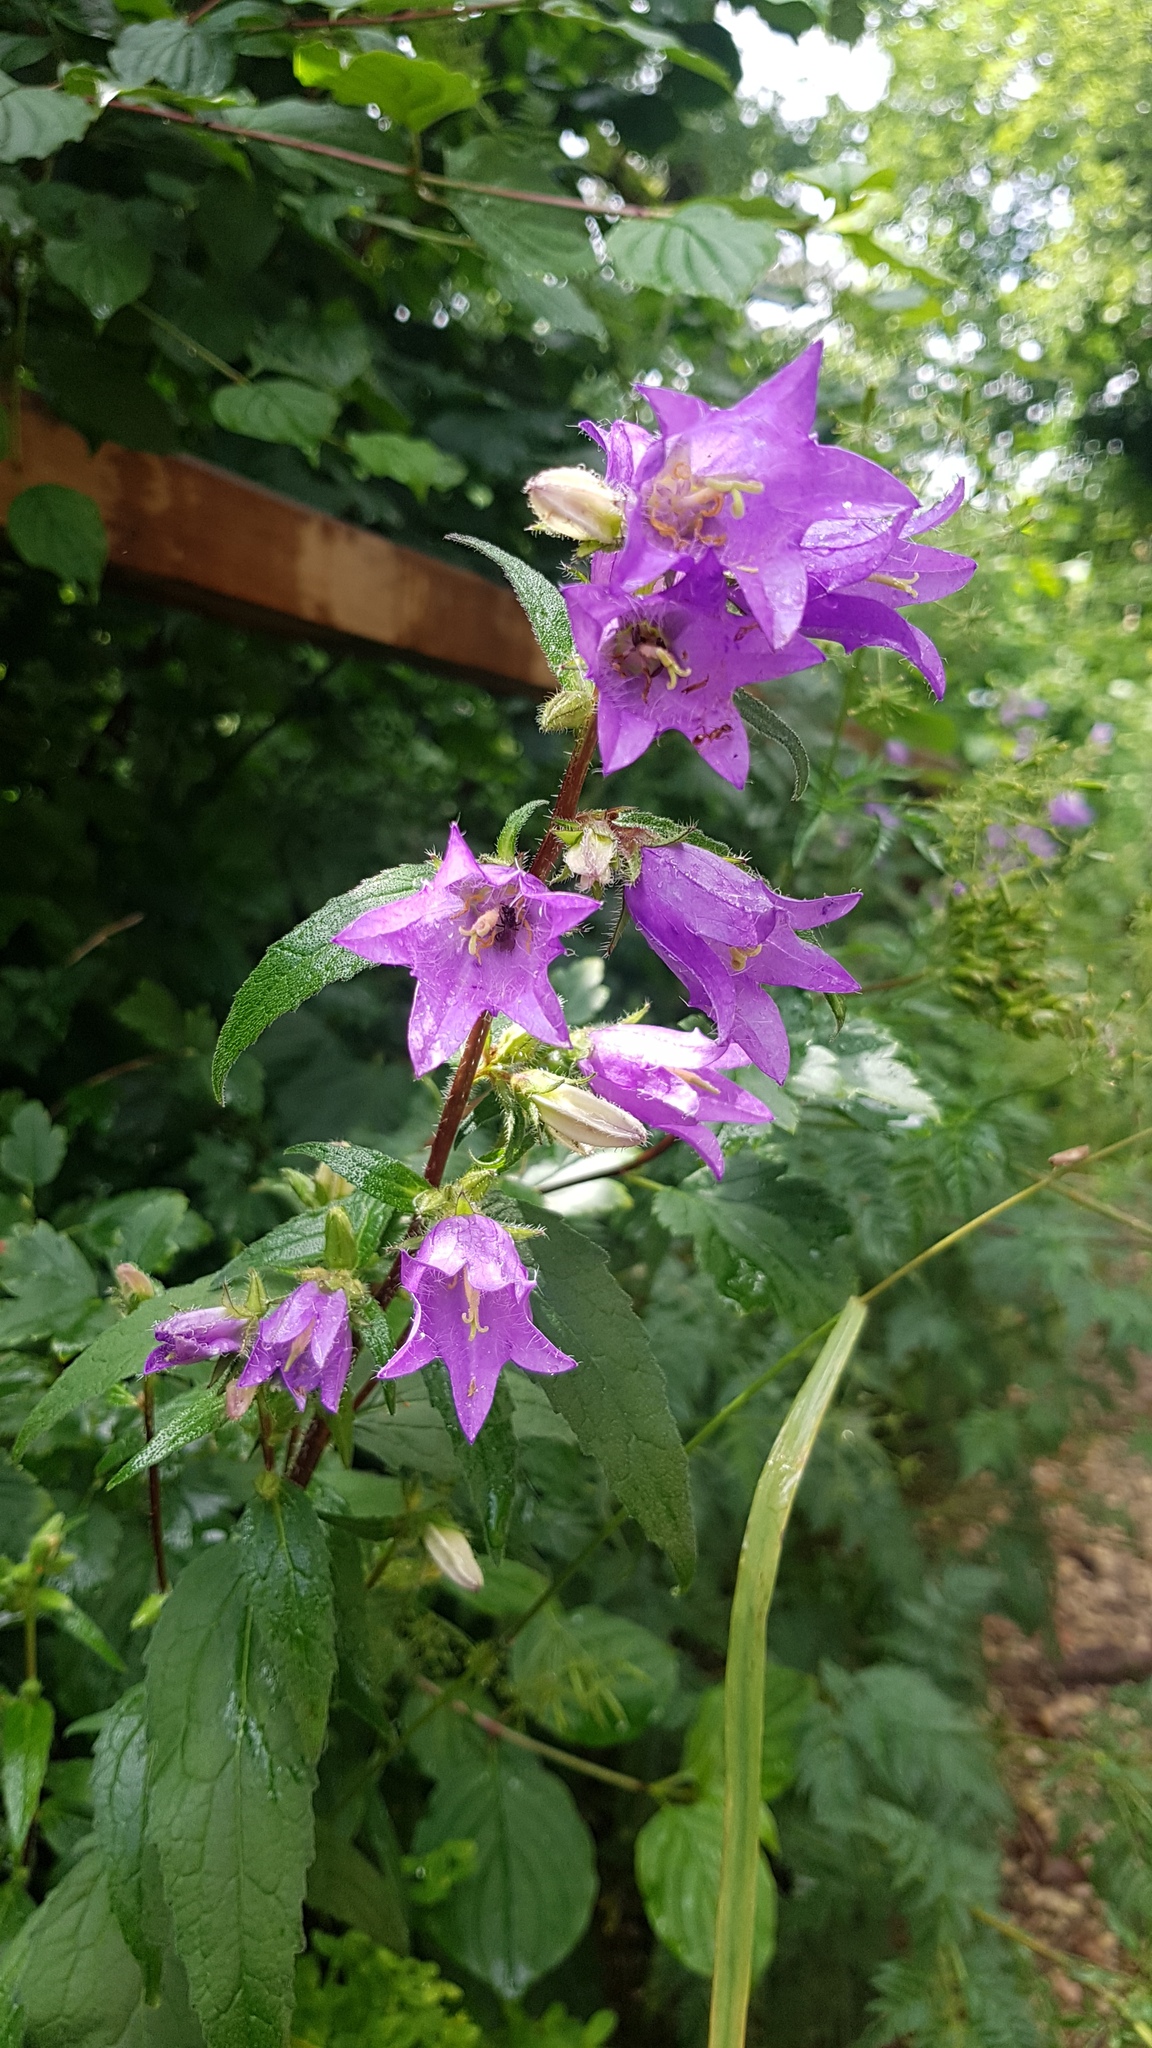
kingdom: Plantae
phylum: Tracheophyta
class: Magnoliopsida
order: Asterales
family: Campanulaceae
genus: Campanula
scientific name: Campanula trachelium
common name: Nettle-leaved bellflower
